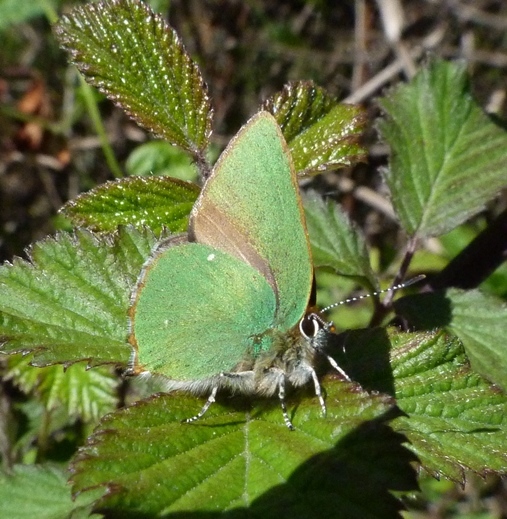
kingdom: Animalia
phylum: Arthropoda
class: Insecta
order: Lepidoptera
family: Lycaenidae
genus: Callophrys
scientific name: Callophrys rubi
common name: Green hairstreak
